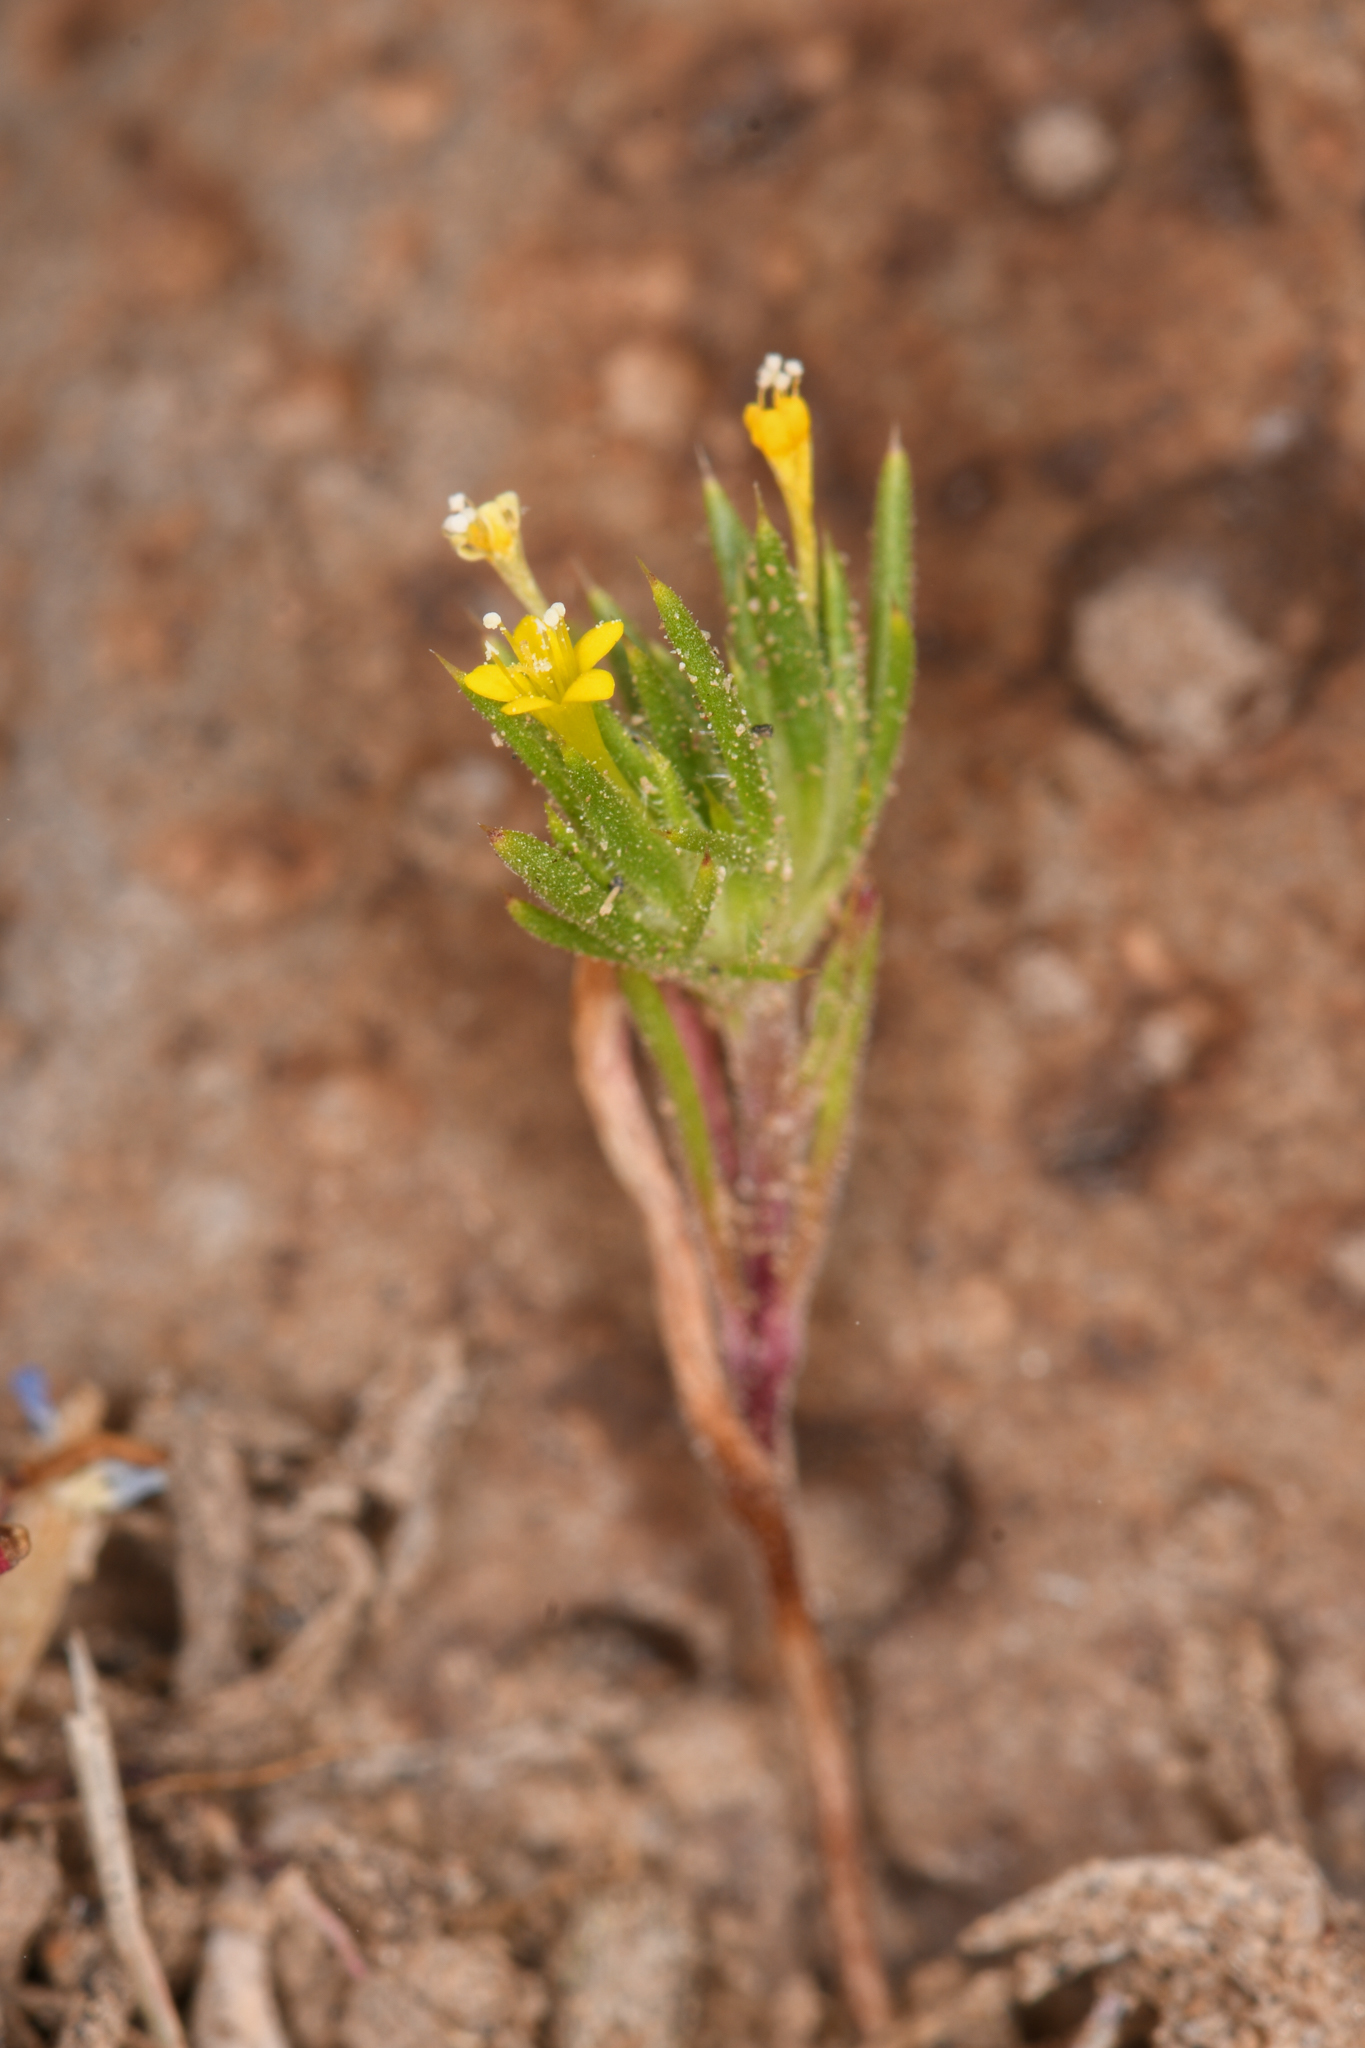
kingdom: Plantae
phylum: Tracheophyta
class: Magnoliopsida
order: Ericales
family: Polemoniaceae
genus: Navarretia
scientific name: Navarretia breweri
